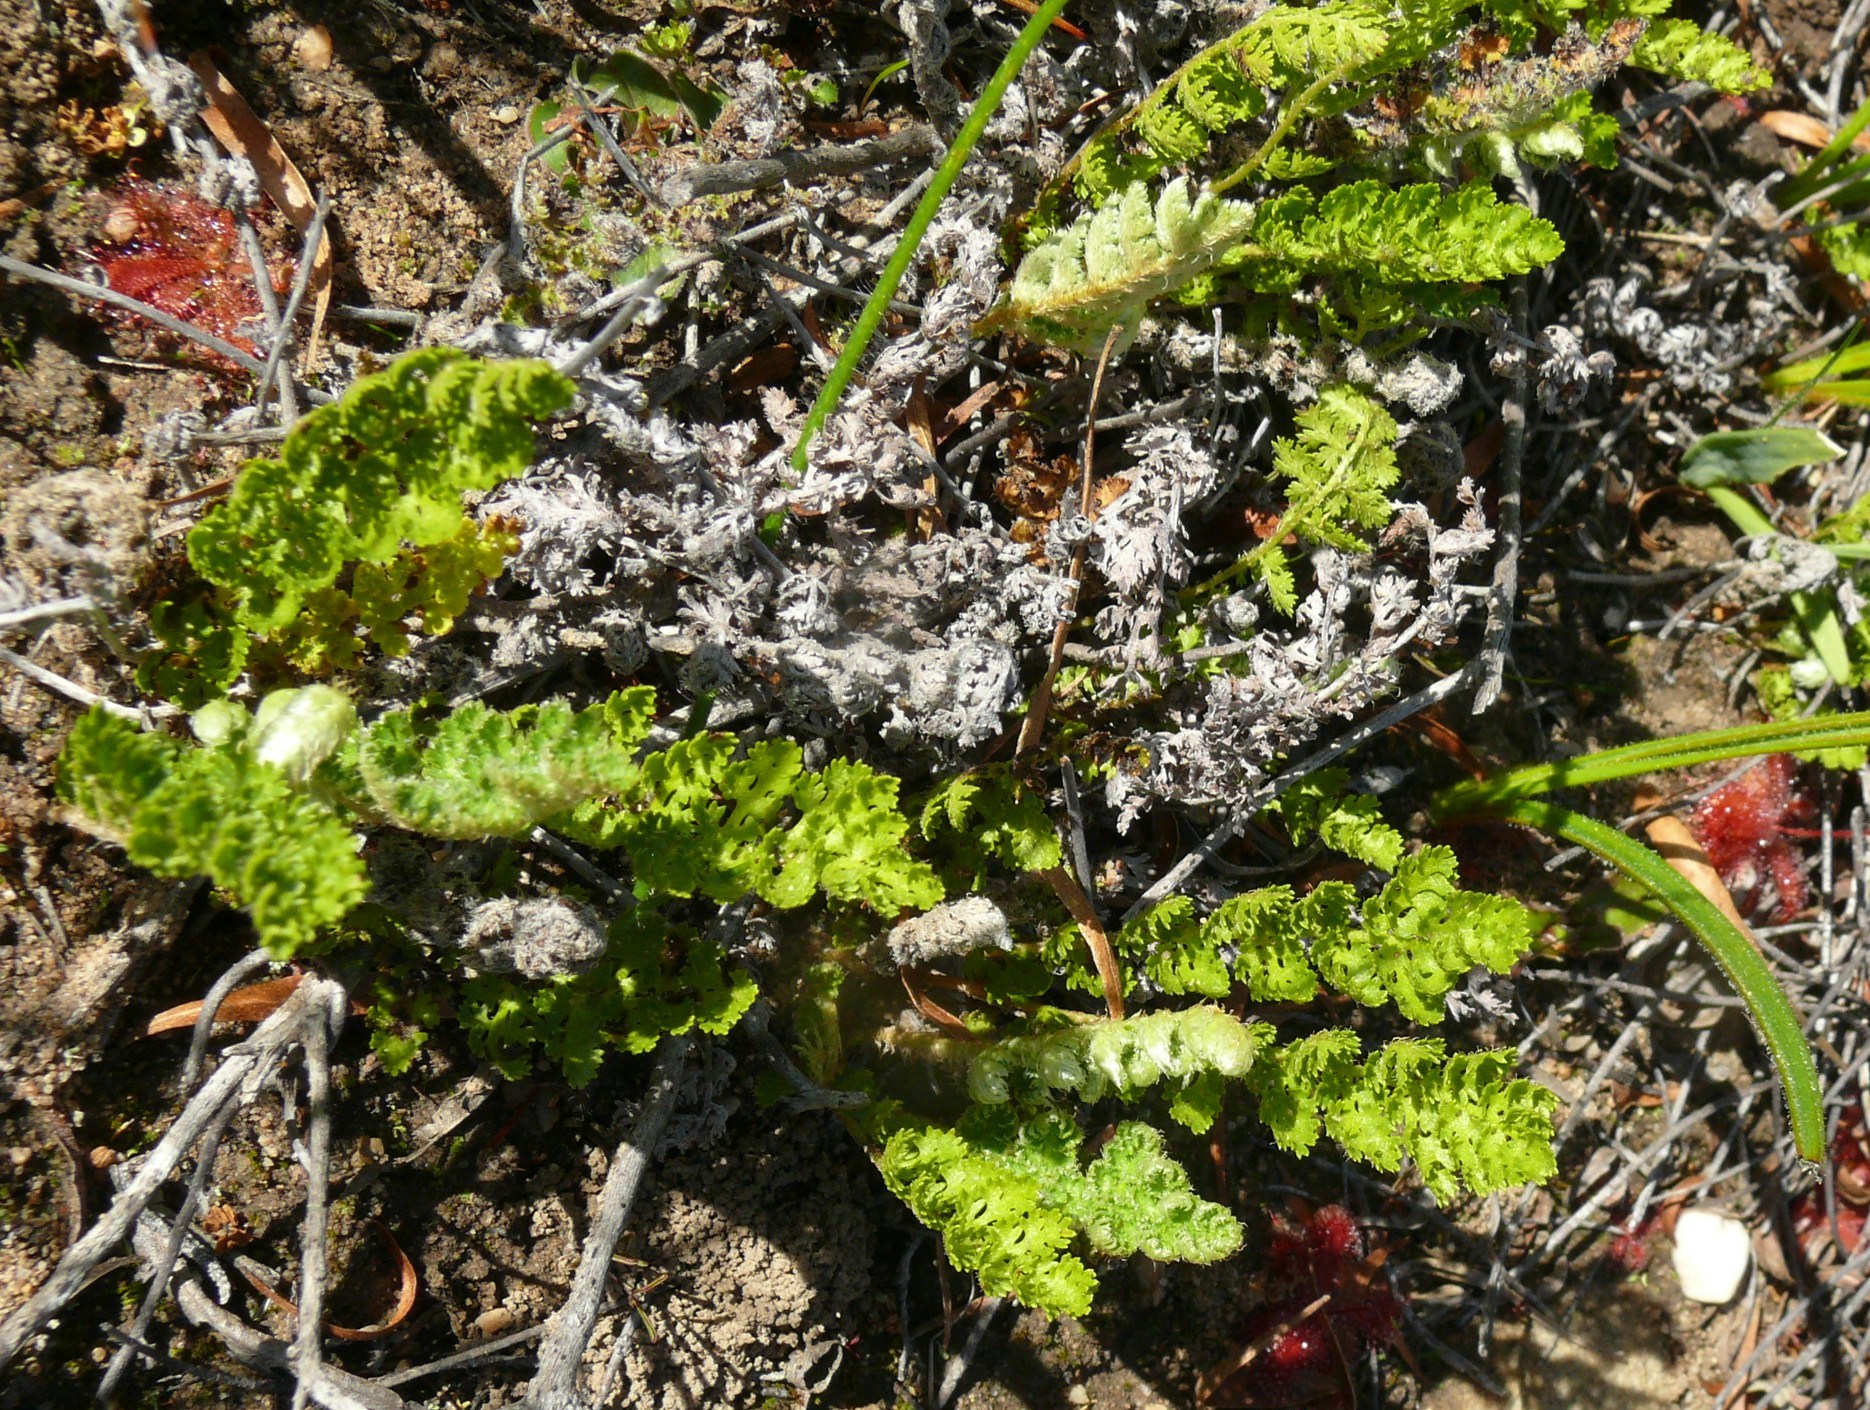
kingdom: Plantae
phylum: Tracheophyta
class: Polypodiopsida
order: Schizaeales
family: Anemiaceae
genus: Anemia
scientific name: Anemia caffrorum
